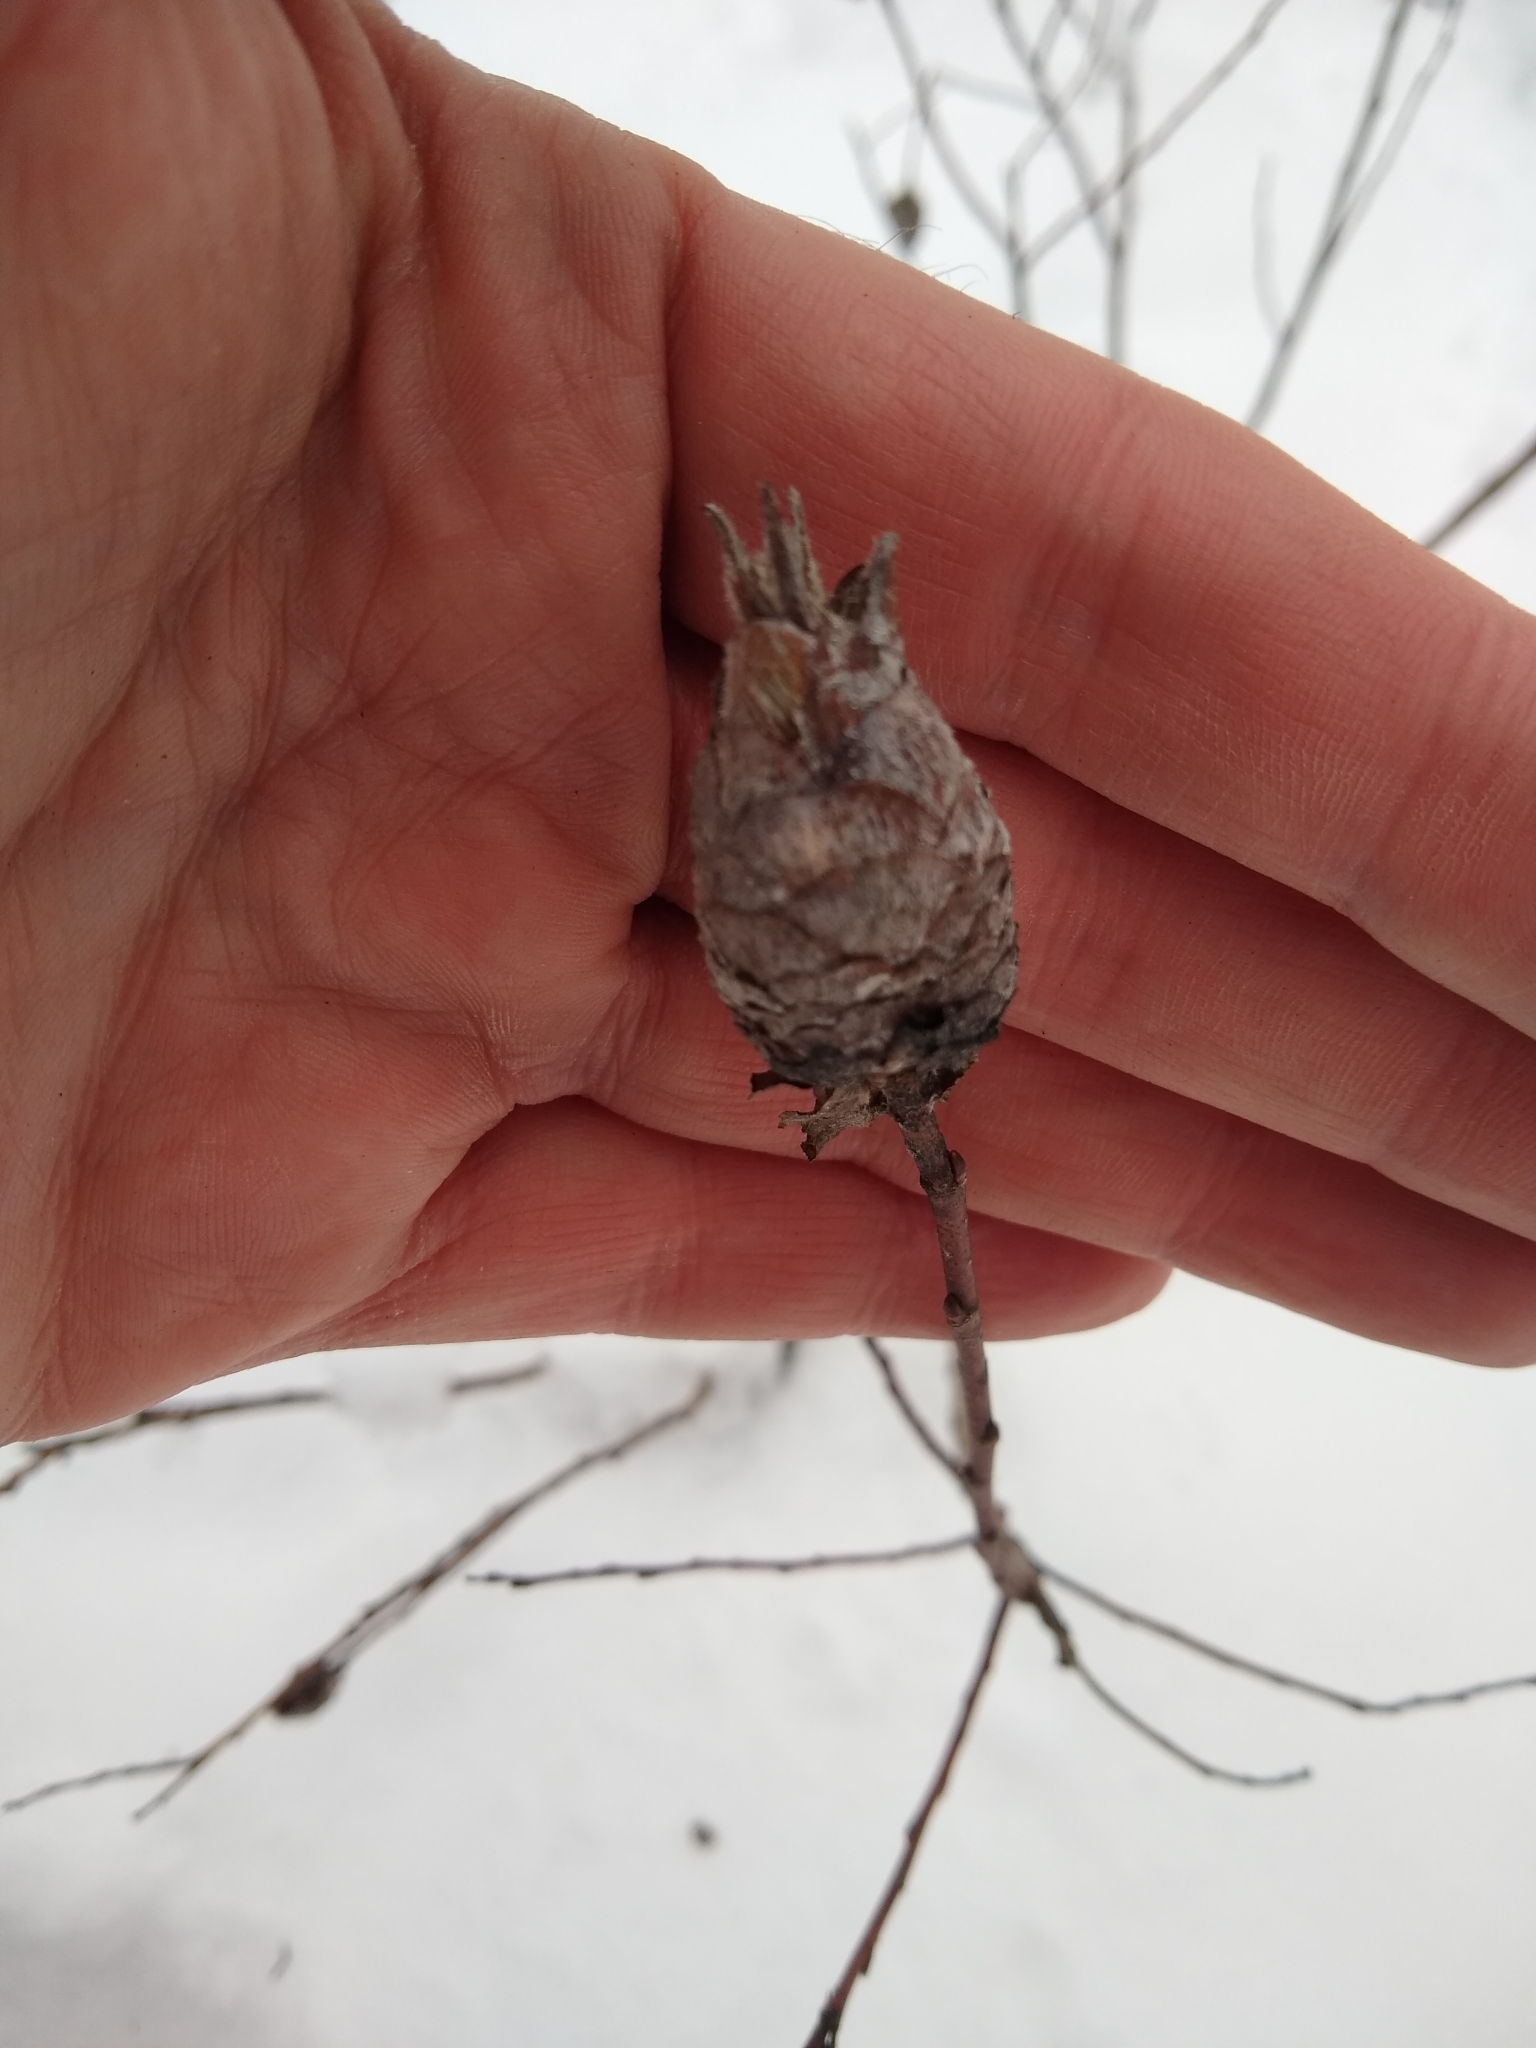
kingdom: Animalia
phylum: Arthropoda
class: Insecta
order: Diptera
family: Cecidomyiidae
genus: Rabdophaga
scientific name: Rabdophaga strobiloides
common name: Willow pinecone gall midge
